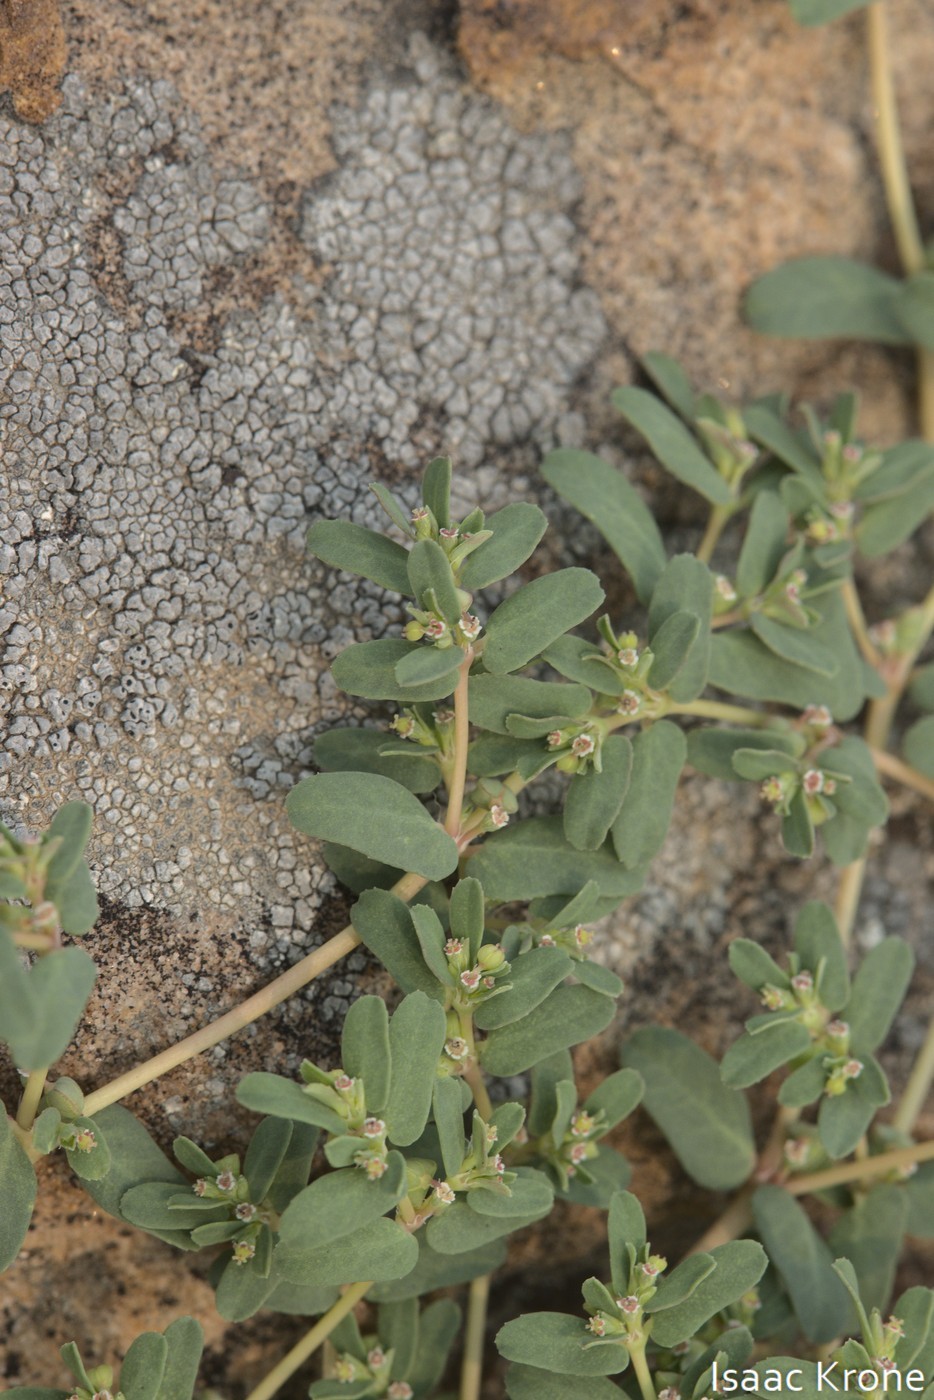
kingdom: Plantae
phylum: Tracheophyta
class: Magnoliopsida
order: Malpighiales
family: Euphorbiaceae
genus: Euphorbia
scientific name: Euphorbia glyptosperma
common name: Corrugate-seeded spurge
